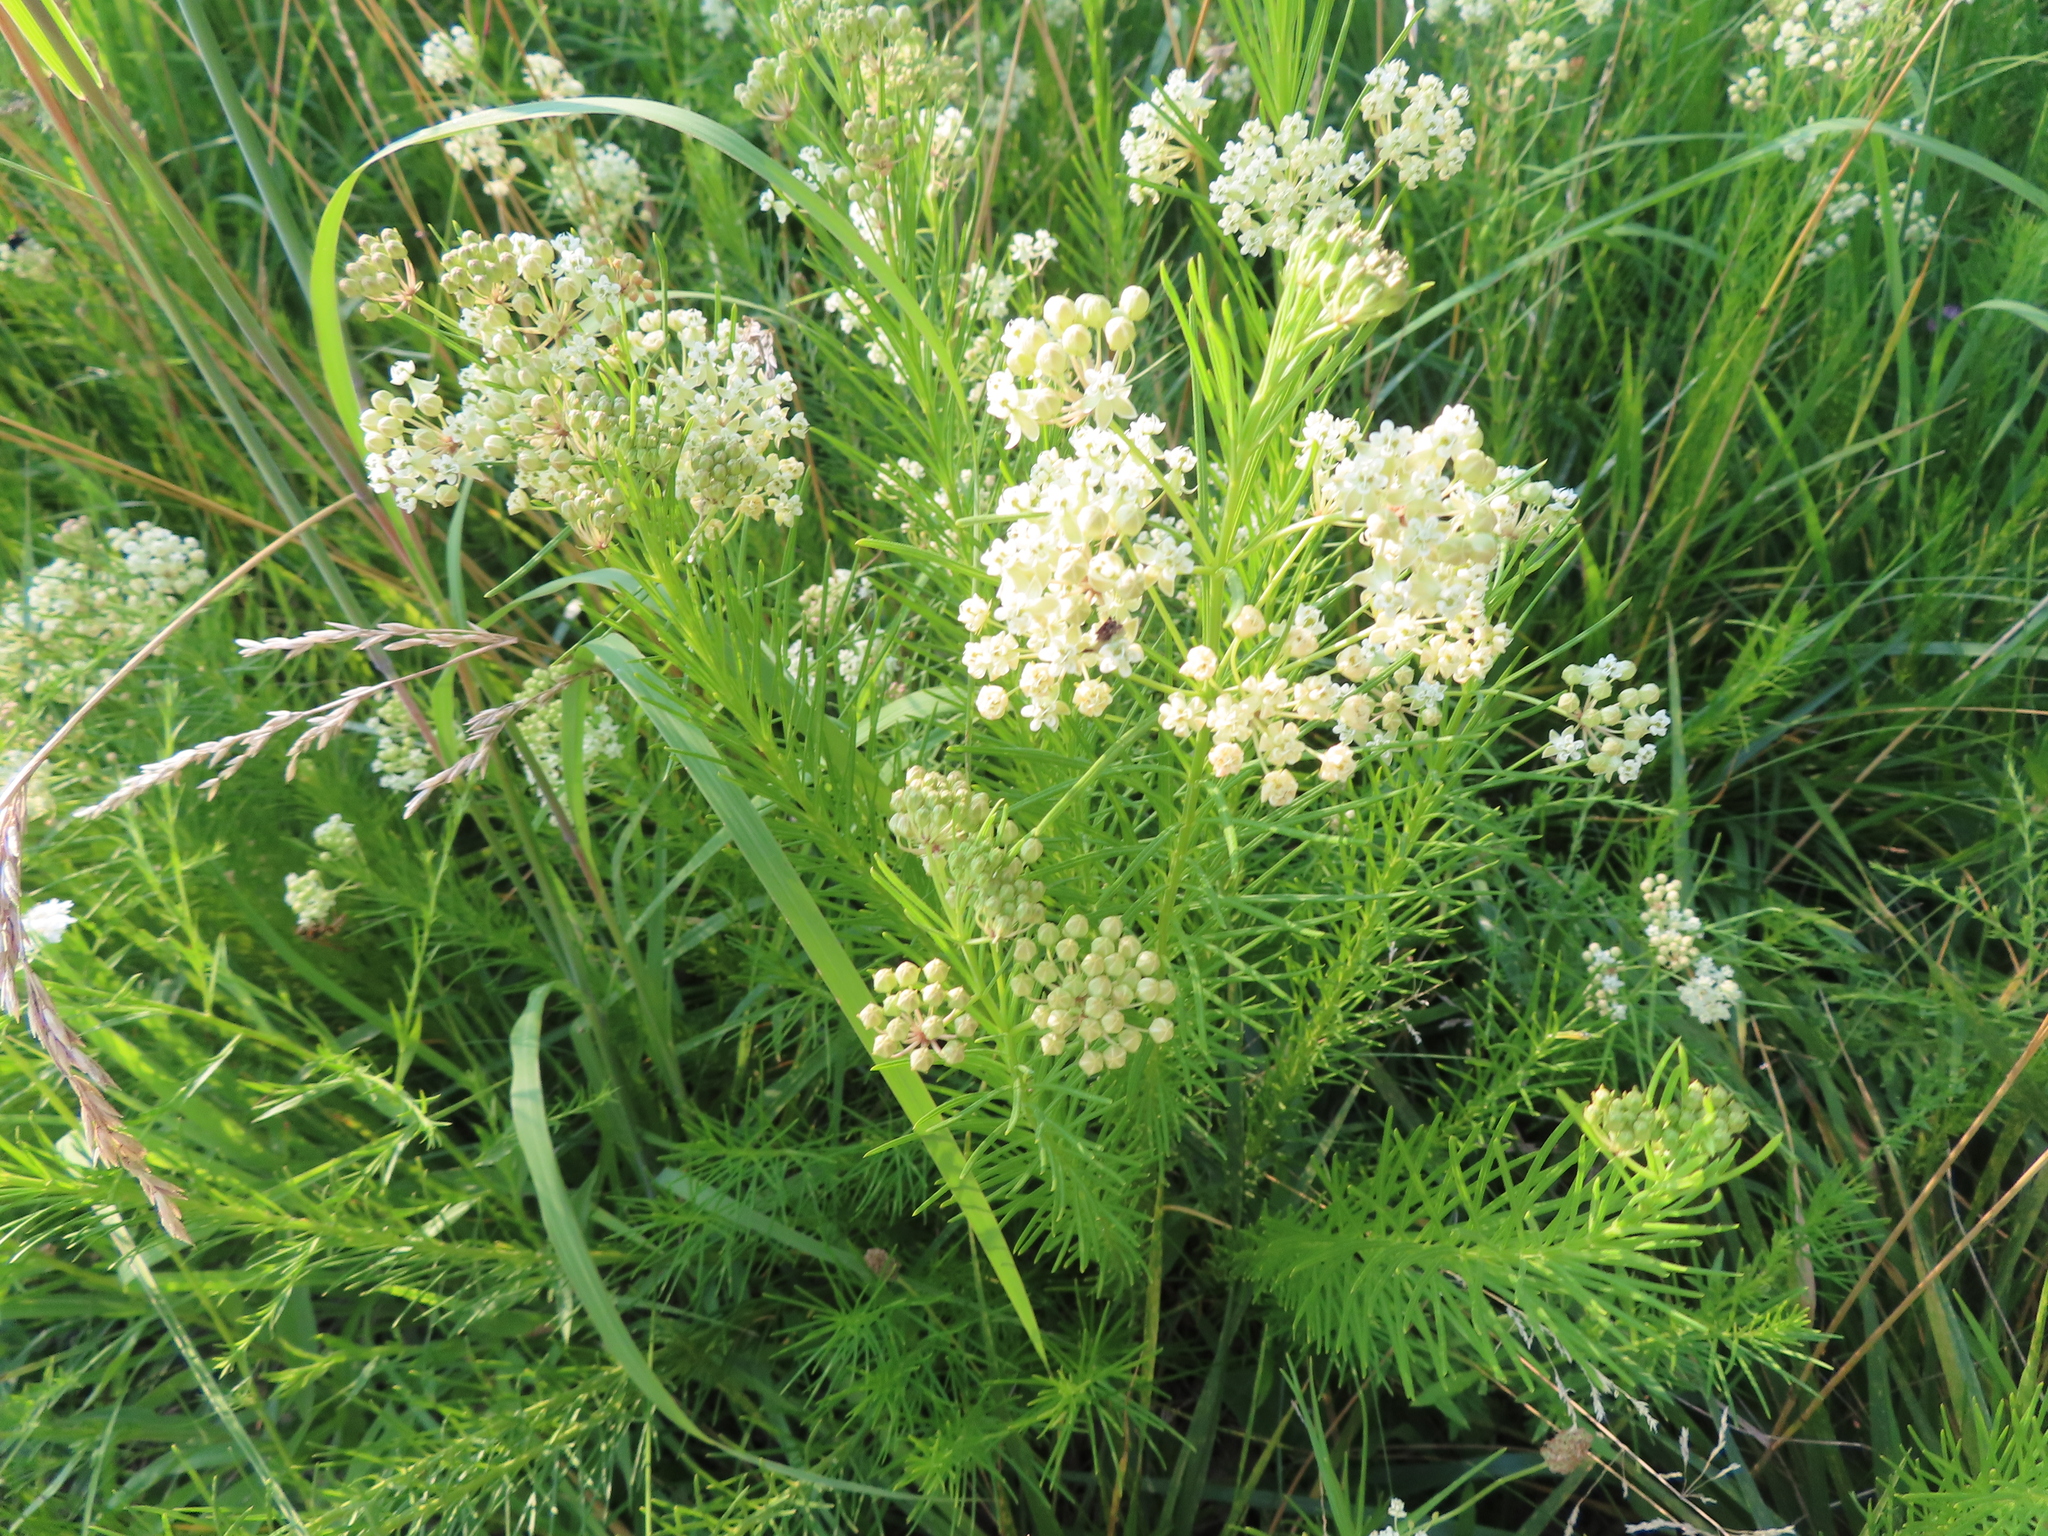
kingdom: Plantae
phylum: Tracheophyta
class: Magnoliopsida
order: Gentianales
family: Apocynaceae
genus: Asclepias
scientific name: Asclepias verticillata
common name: Eastern whorled milkweed
